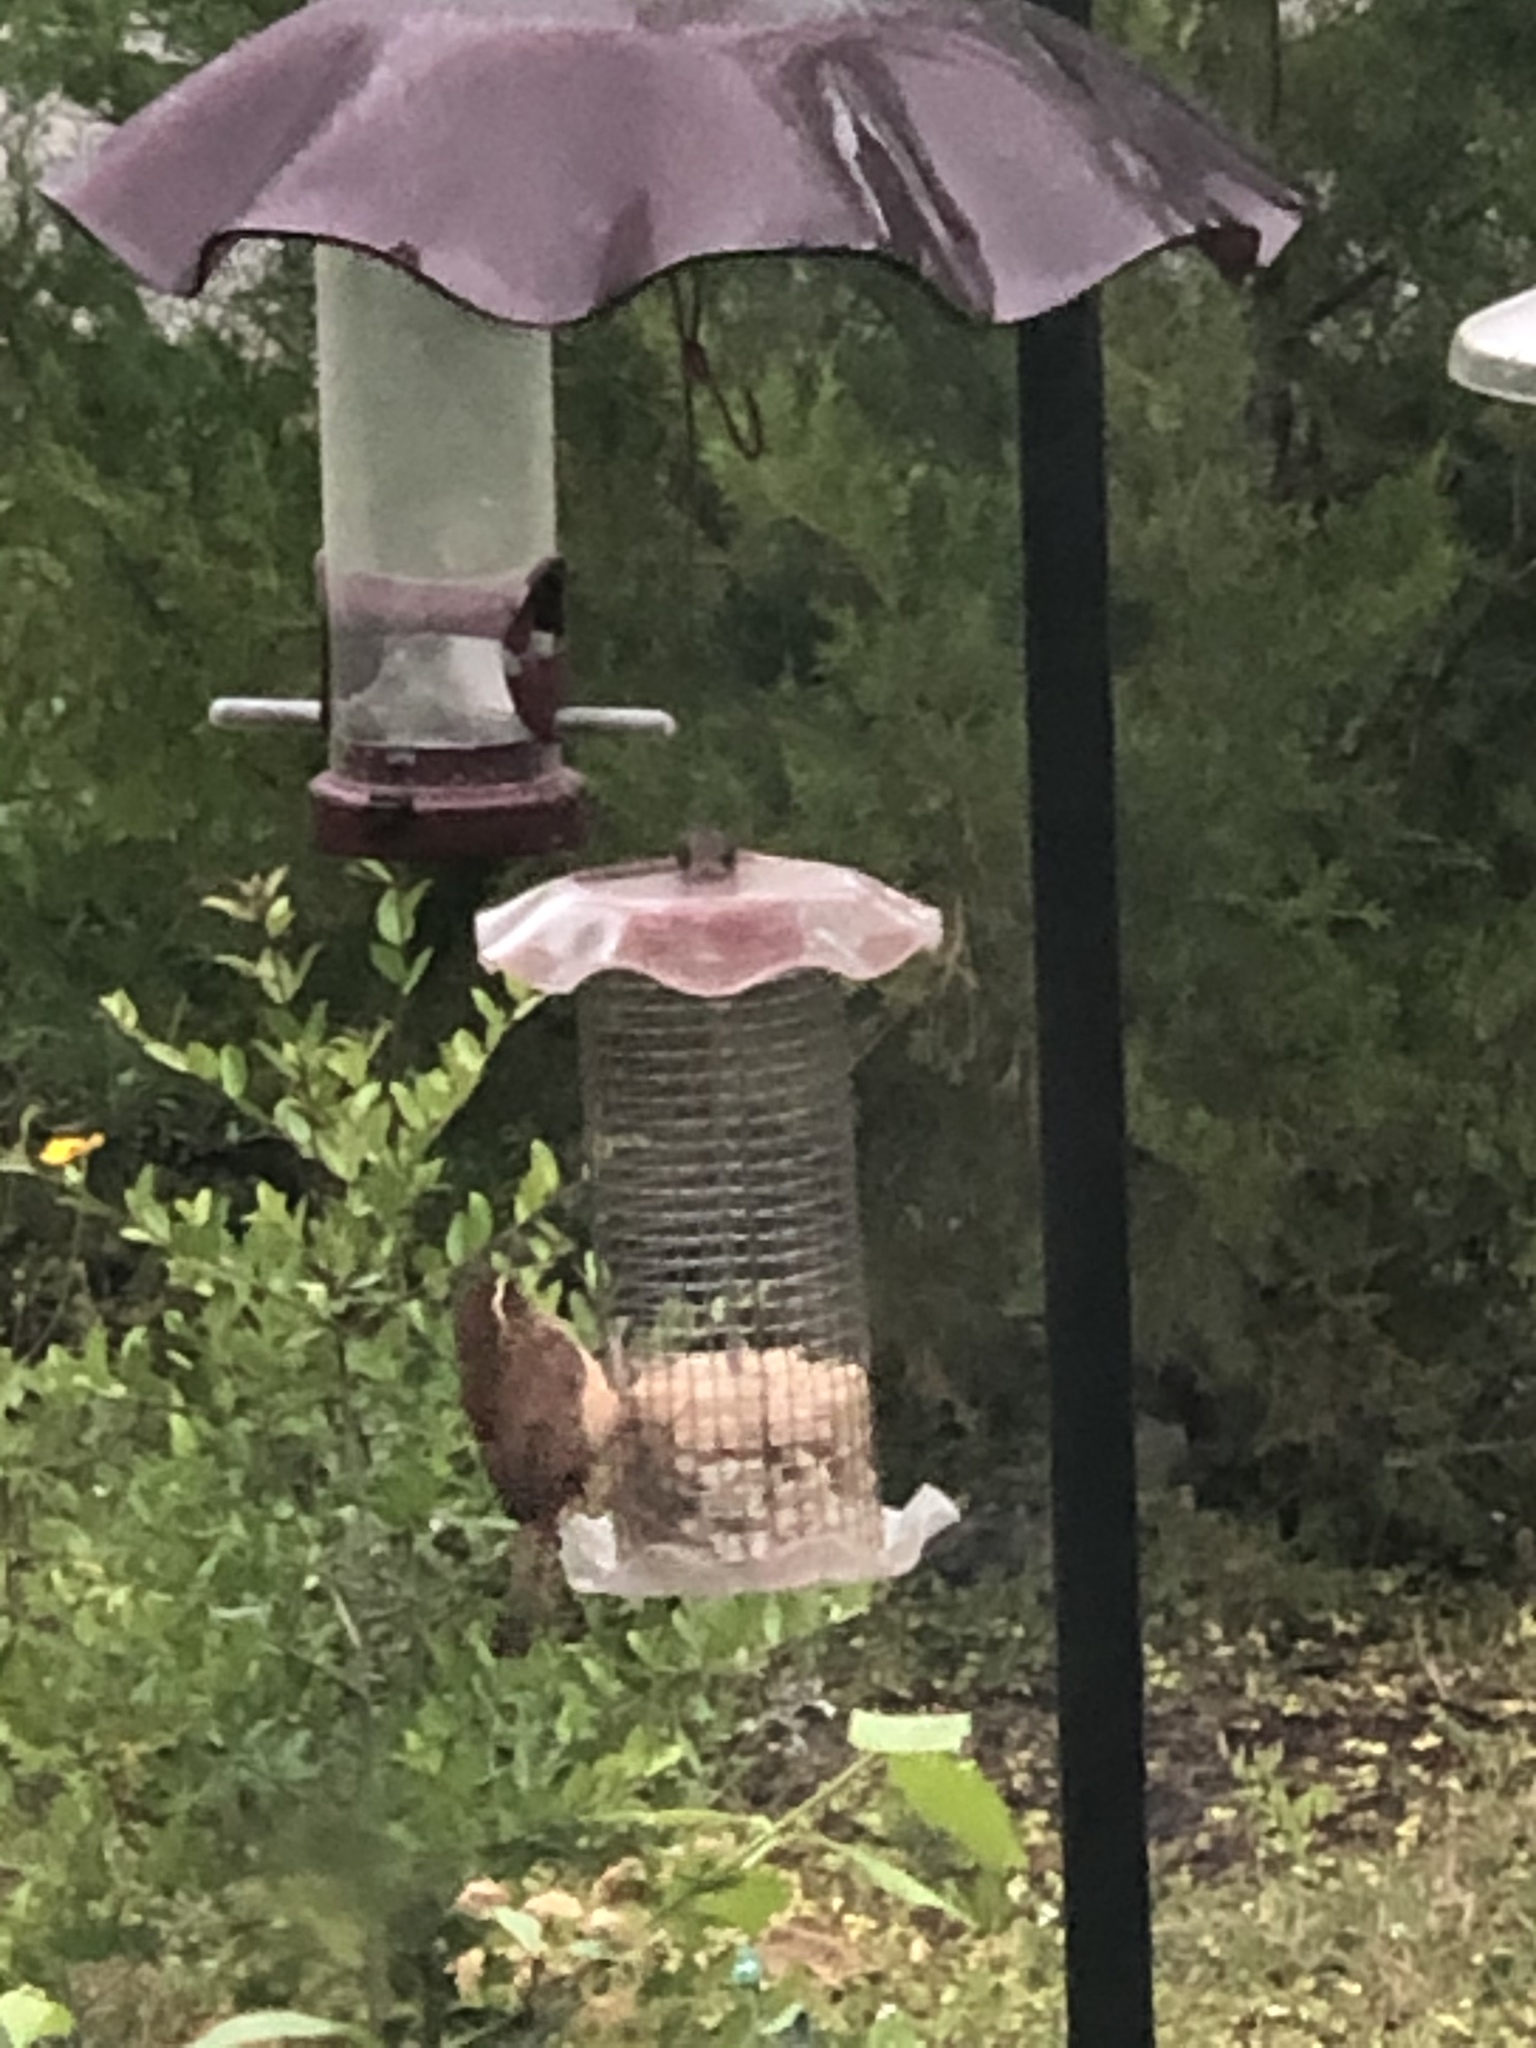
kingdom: Animalia
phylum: Chordata
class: Aves
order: Passeriformes
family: Troglodytidae
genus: Thryothorus
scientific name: Thryothorus ludovicianus
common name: Carolina wren
